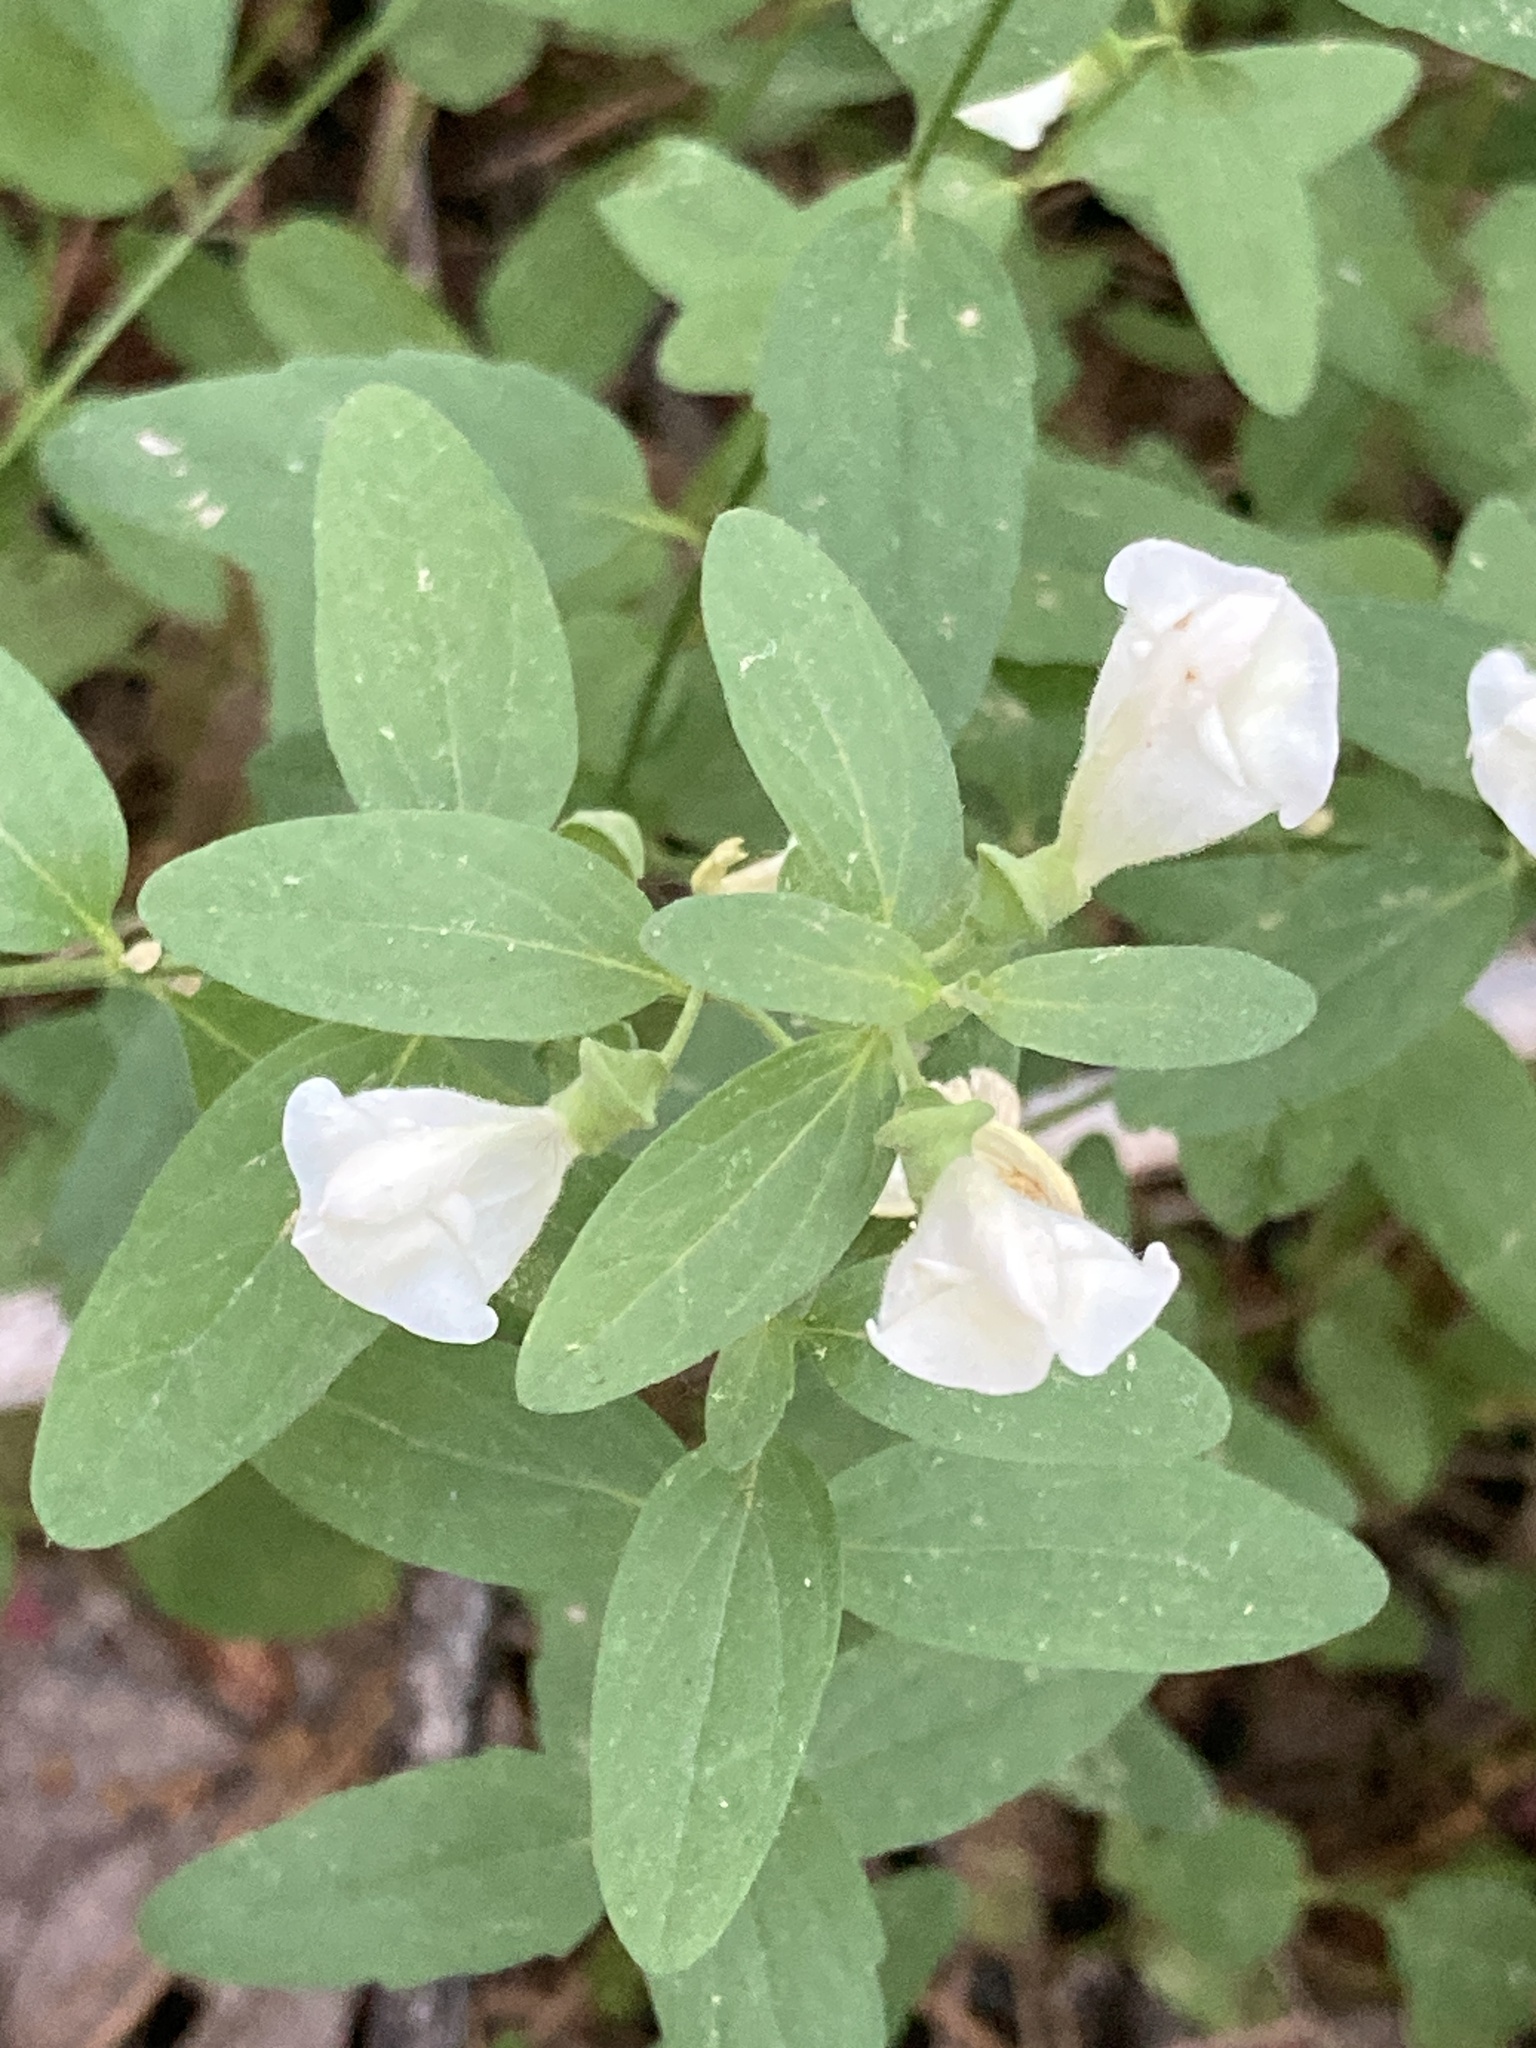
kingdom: Plantae
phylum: Tracheophyta
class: Magnoliopsida
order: Lamiales
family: Lamiaceae
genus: Scutellaria
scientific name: Scutellaria californica
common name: California scullcap
